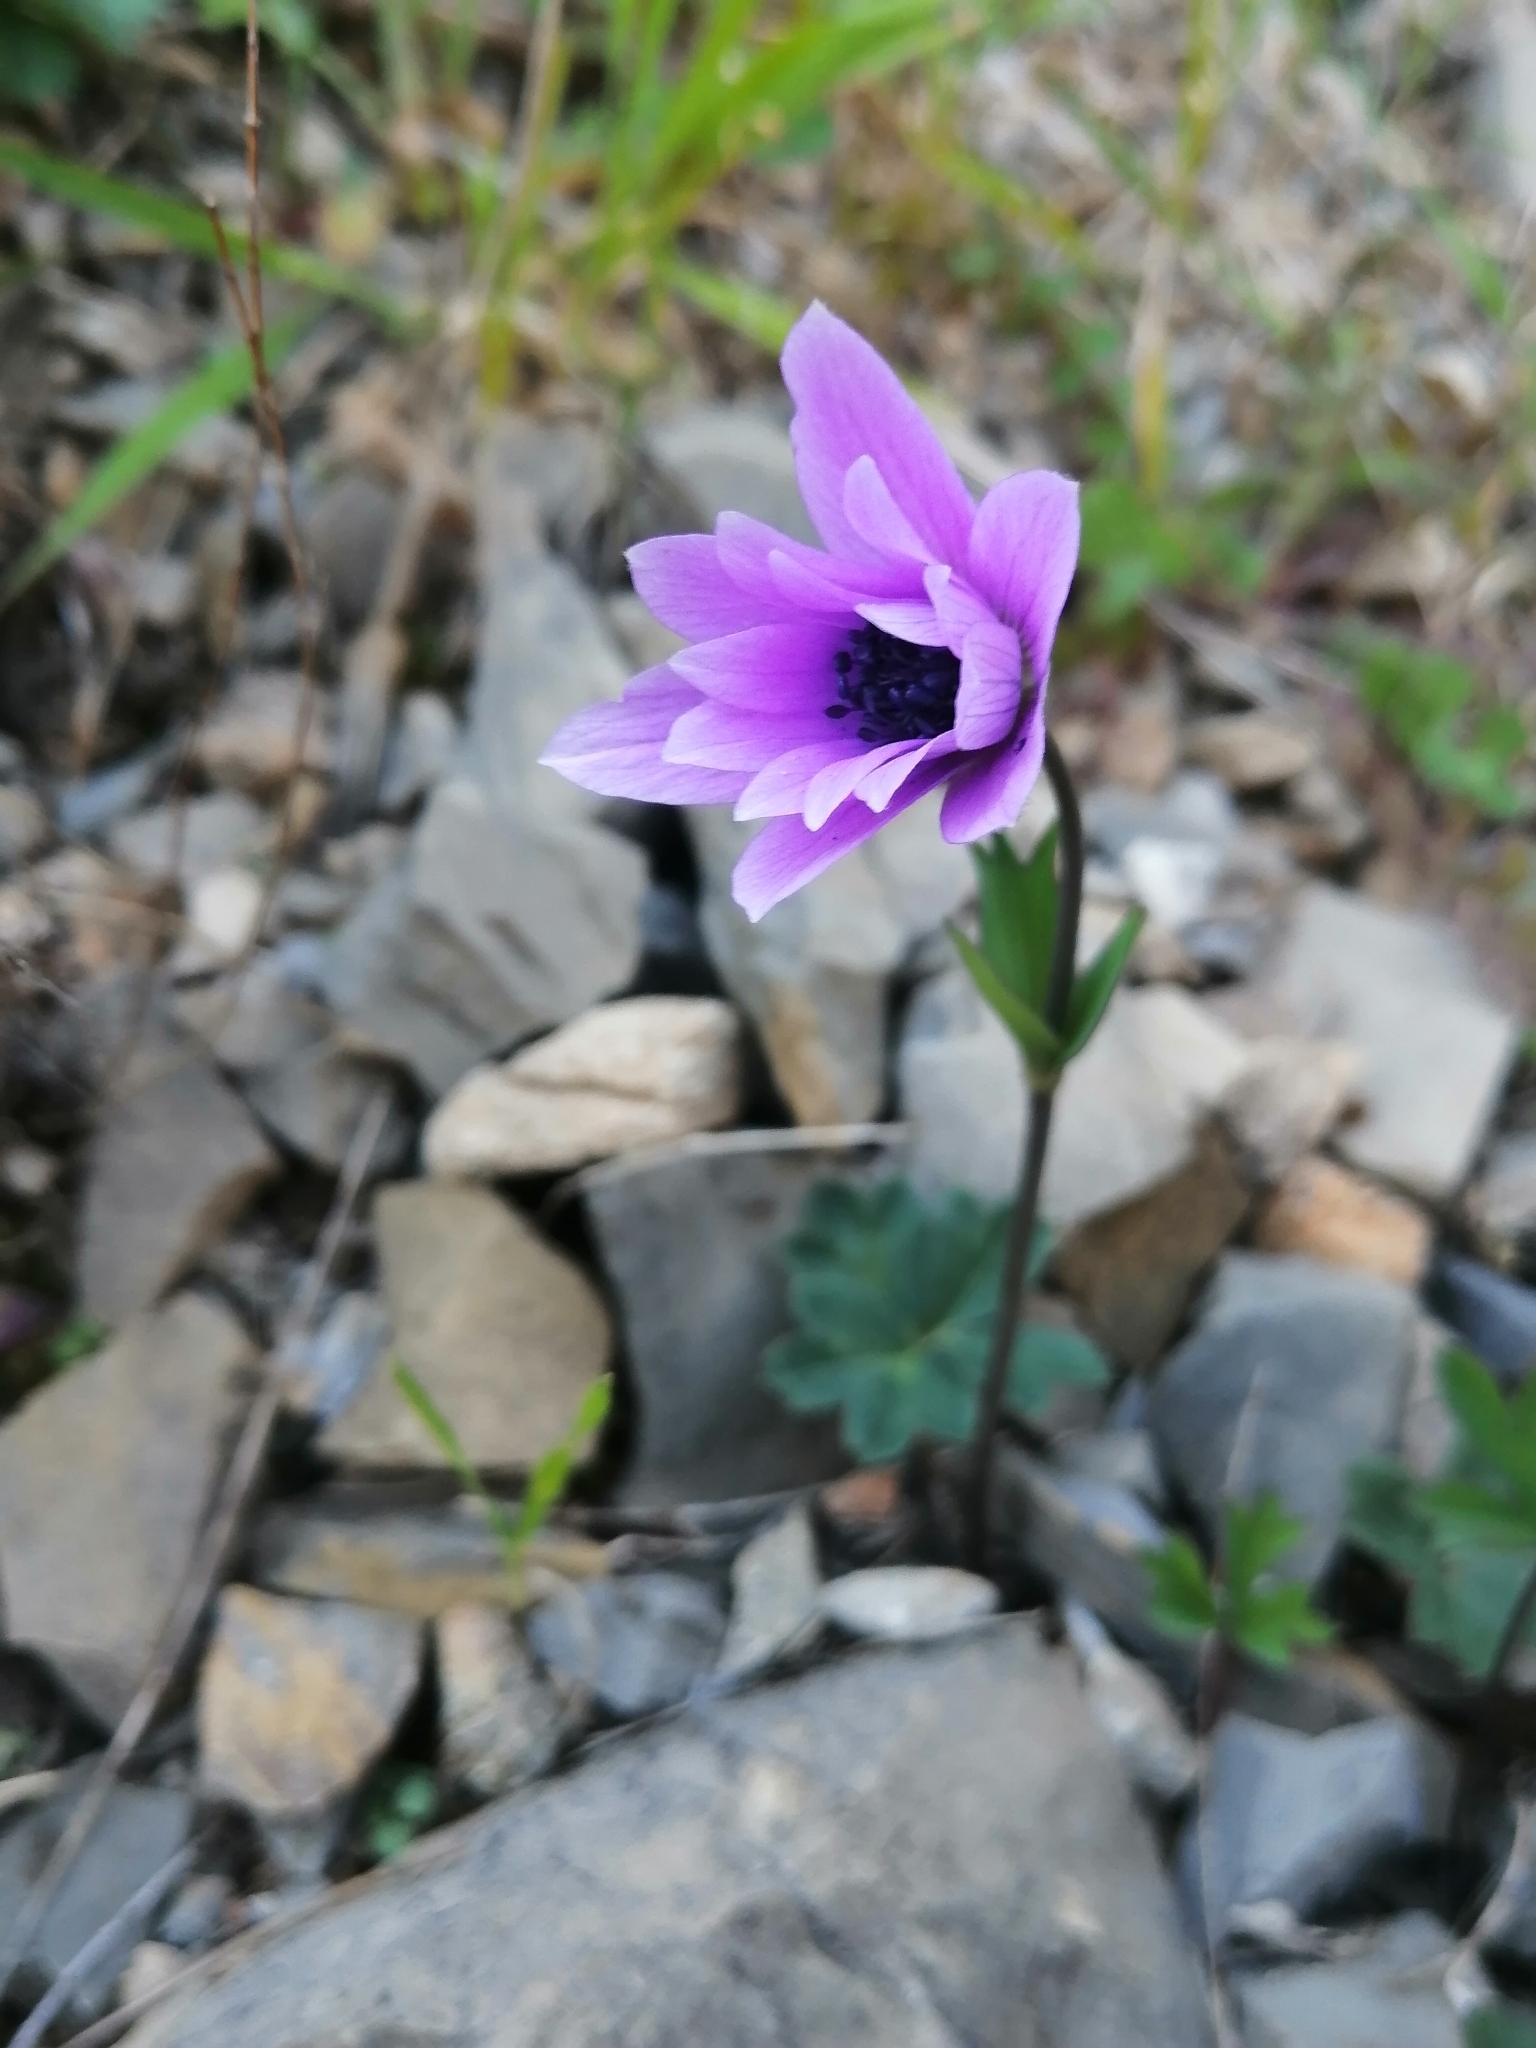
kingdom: Plantae
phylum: Tracheophyta
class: Magnoliopsida
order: Ranunculales
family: Ranunculaceae
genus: Anemone
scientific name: Anemone hortensis
